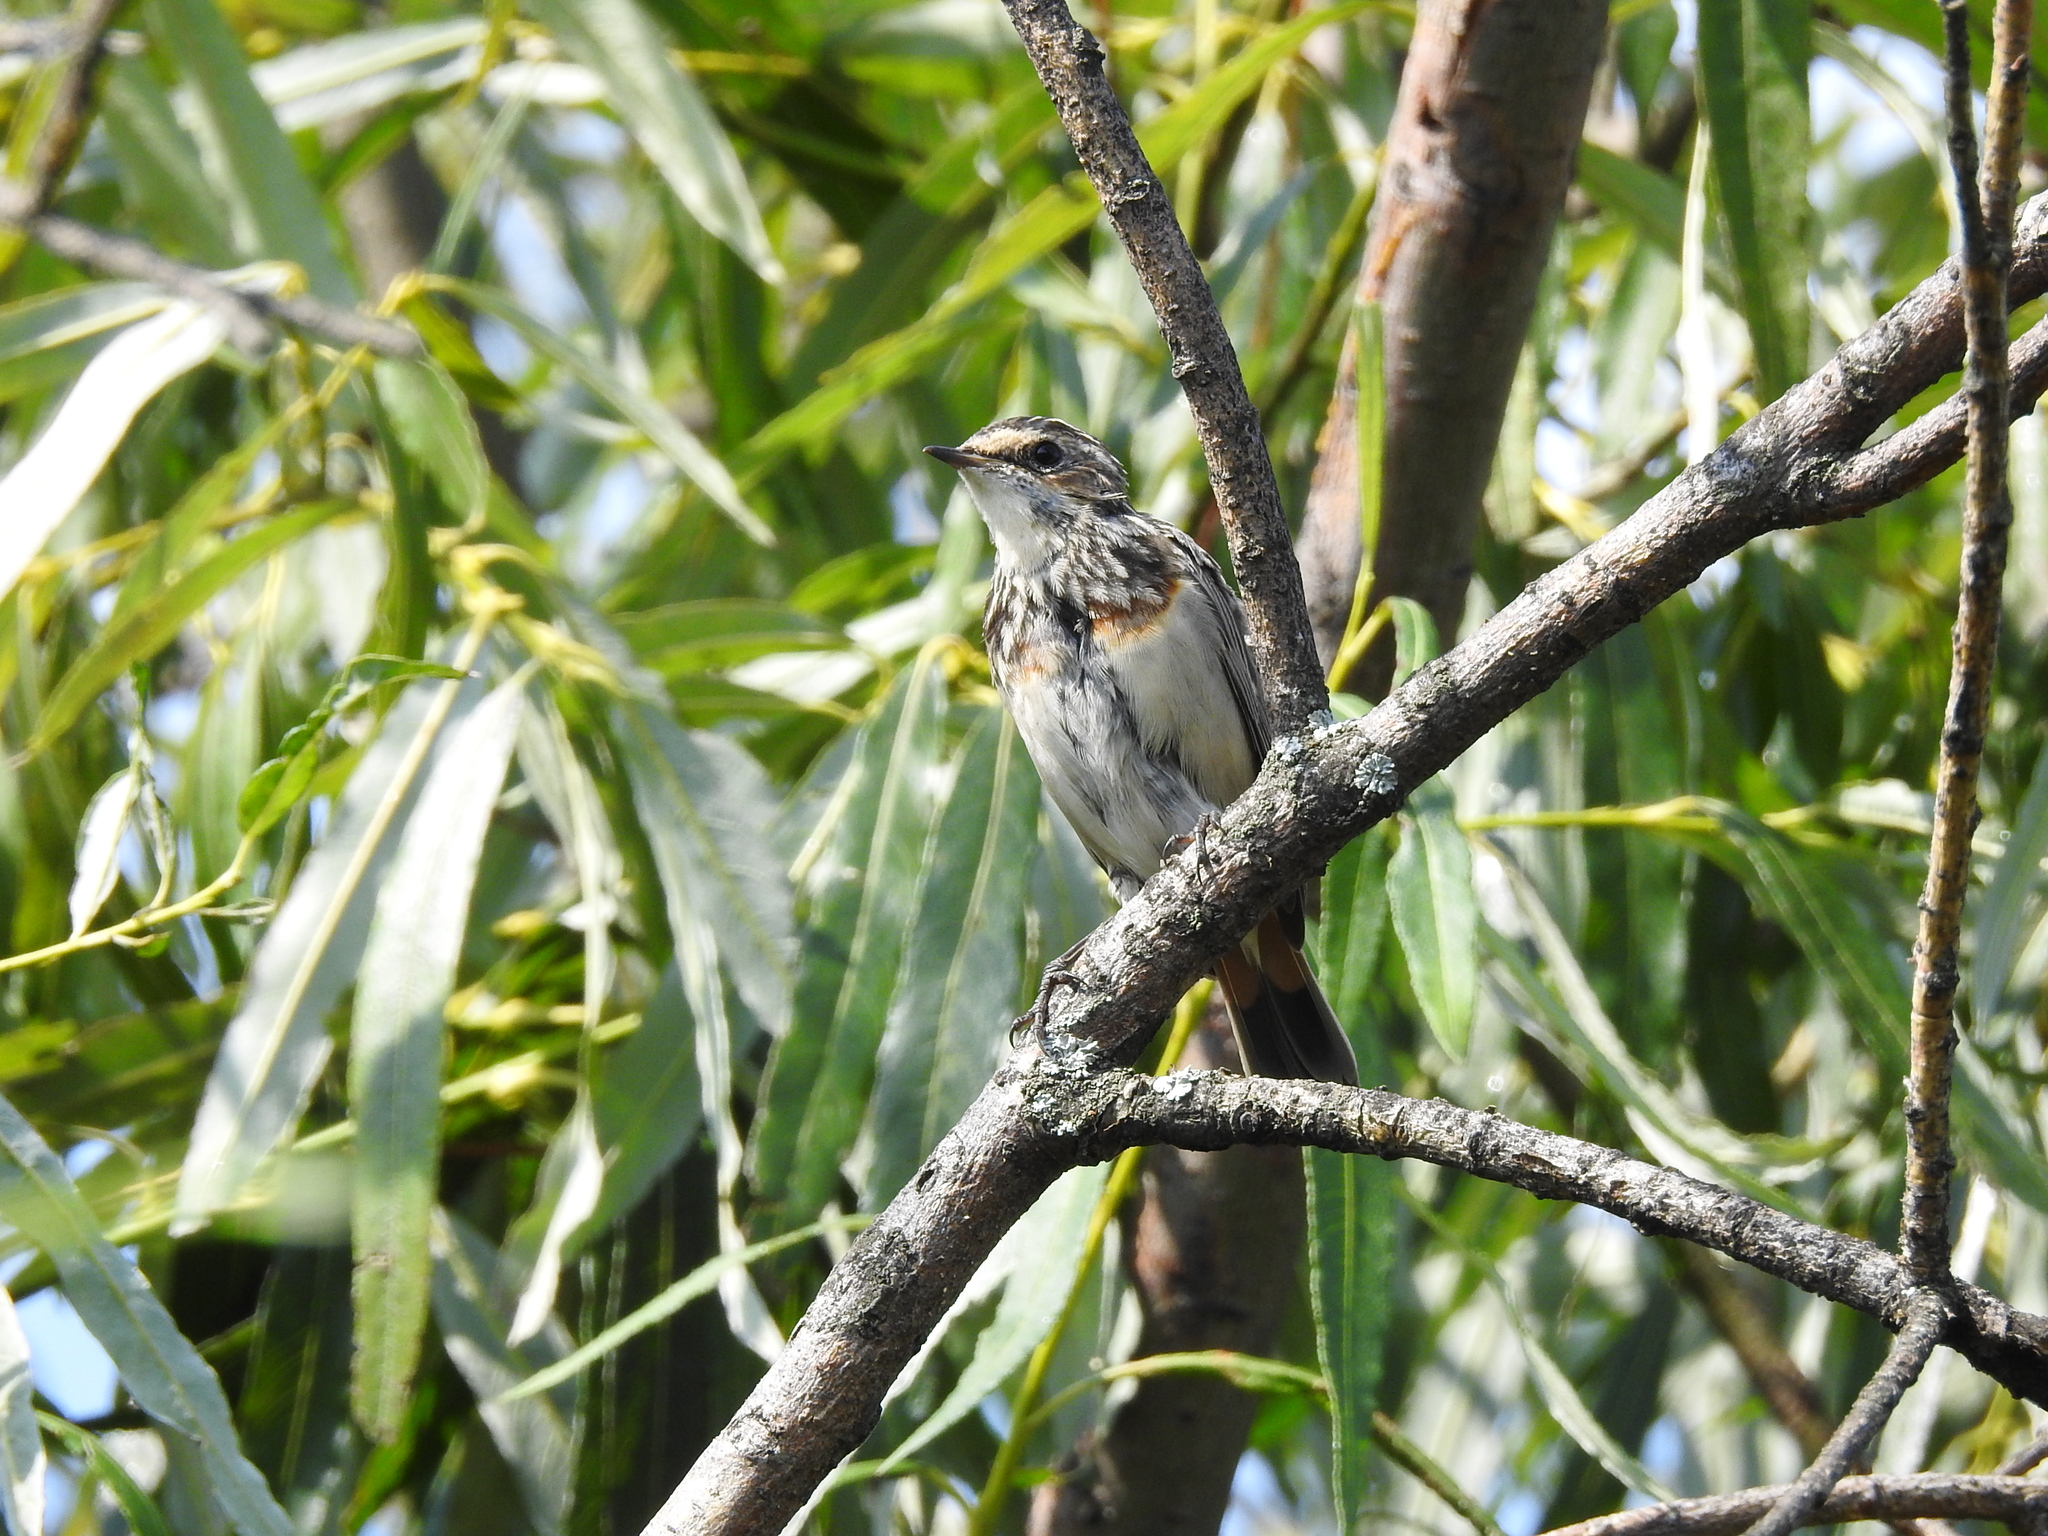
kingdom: Animalia
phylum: Chordata
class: Aves
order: Passeriformes
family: Muscicapidae
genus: Luscinia
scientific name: Luscinia svecica
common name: Bluethroat
